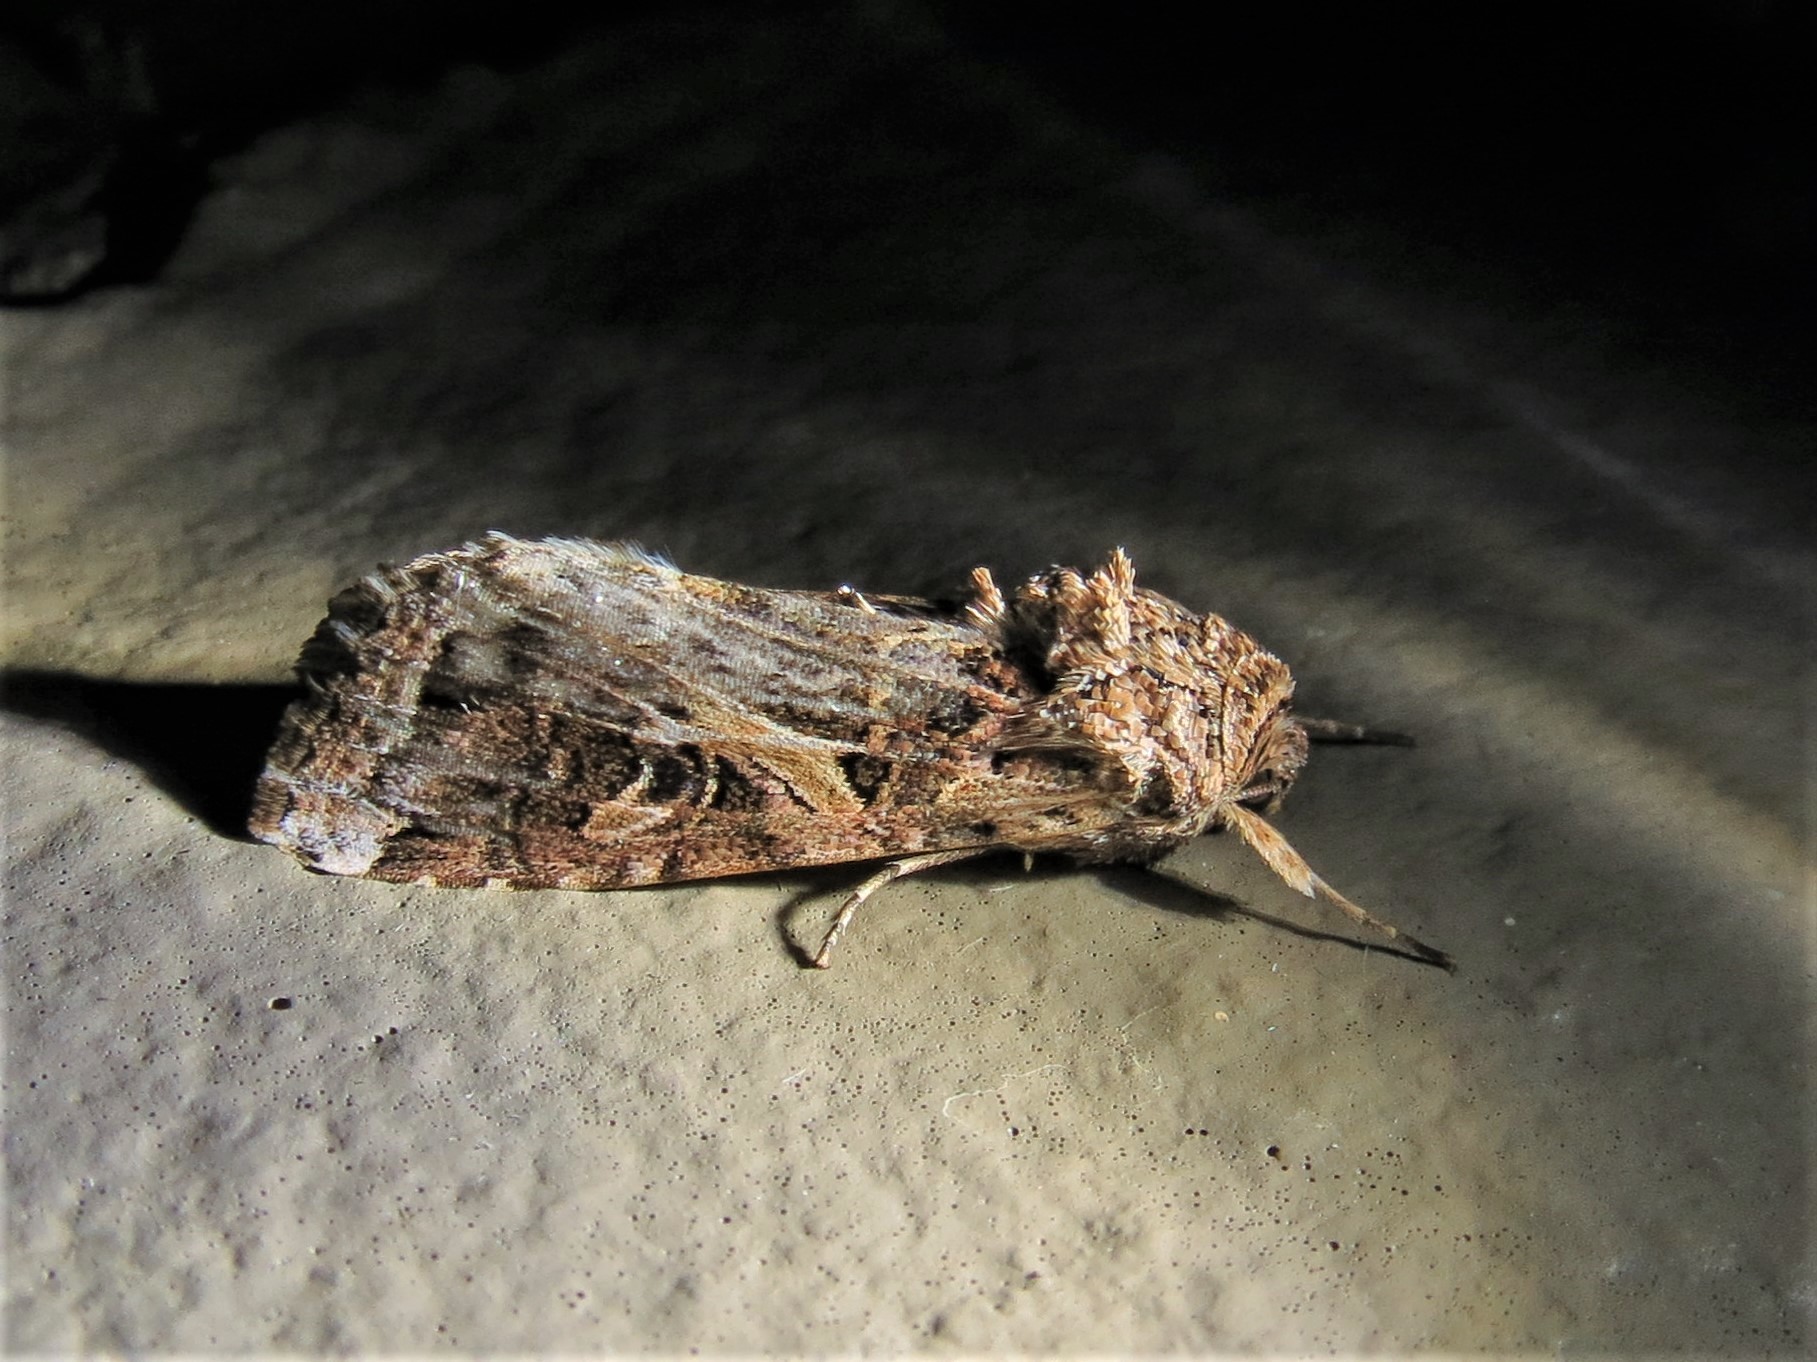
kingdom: Animalia
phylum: Arthropoda
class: Insecta
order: Lepidoptera
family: Noctuidae
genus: Spodoptera
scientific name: Spodoptera ornithogalli
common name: Yellow-striped armyworm
